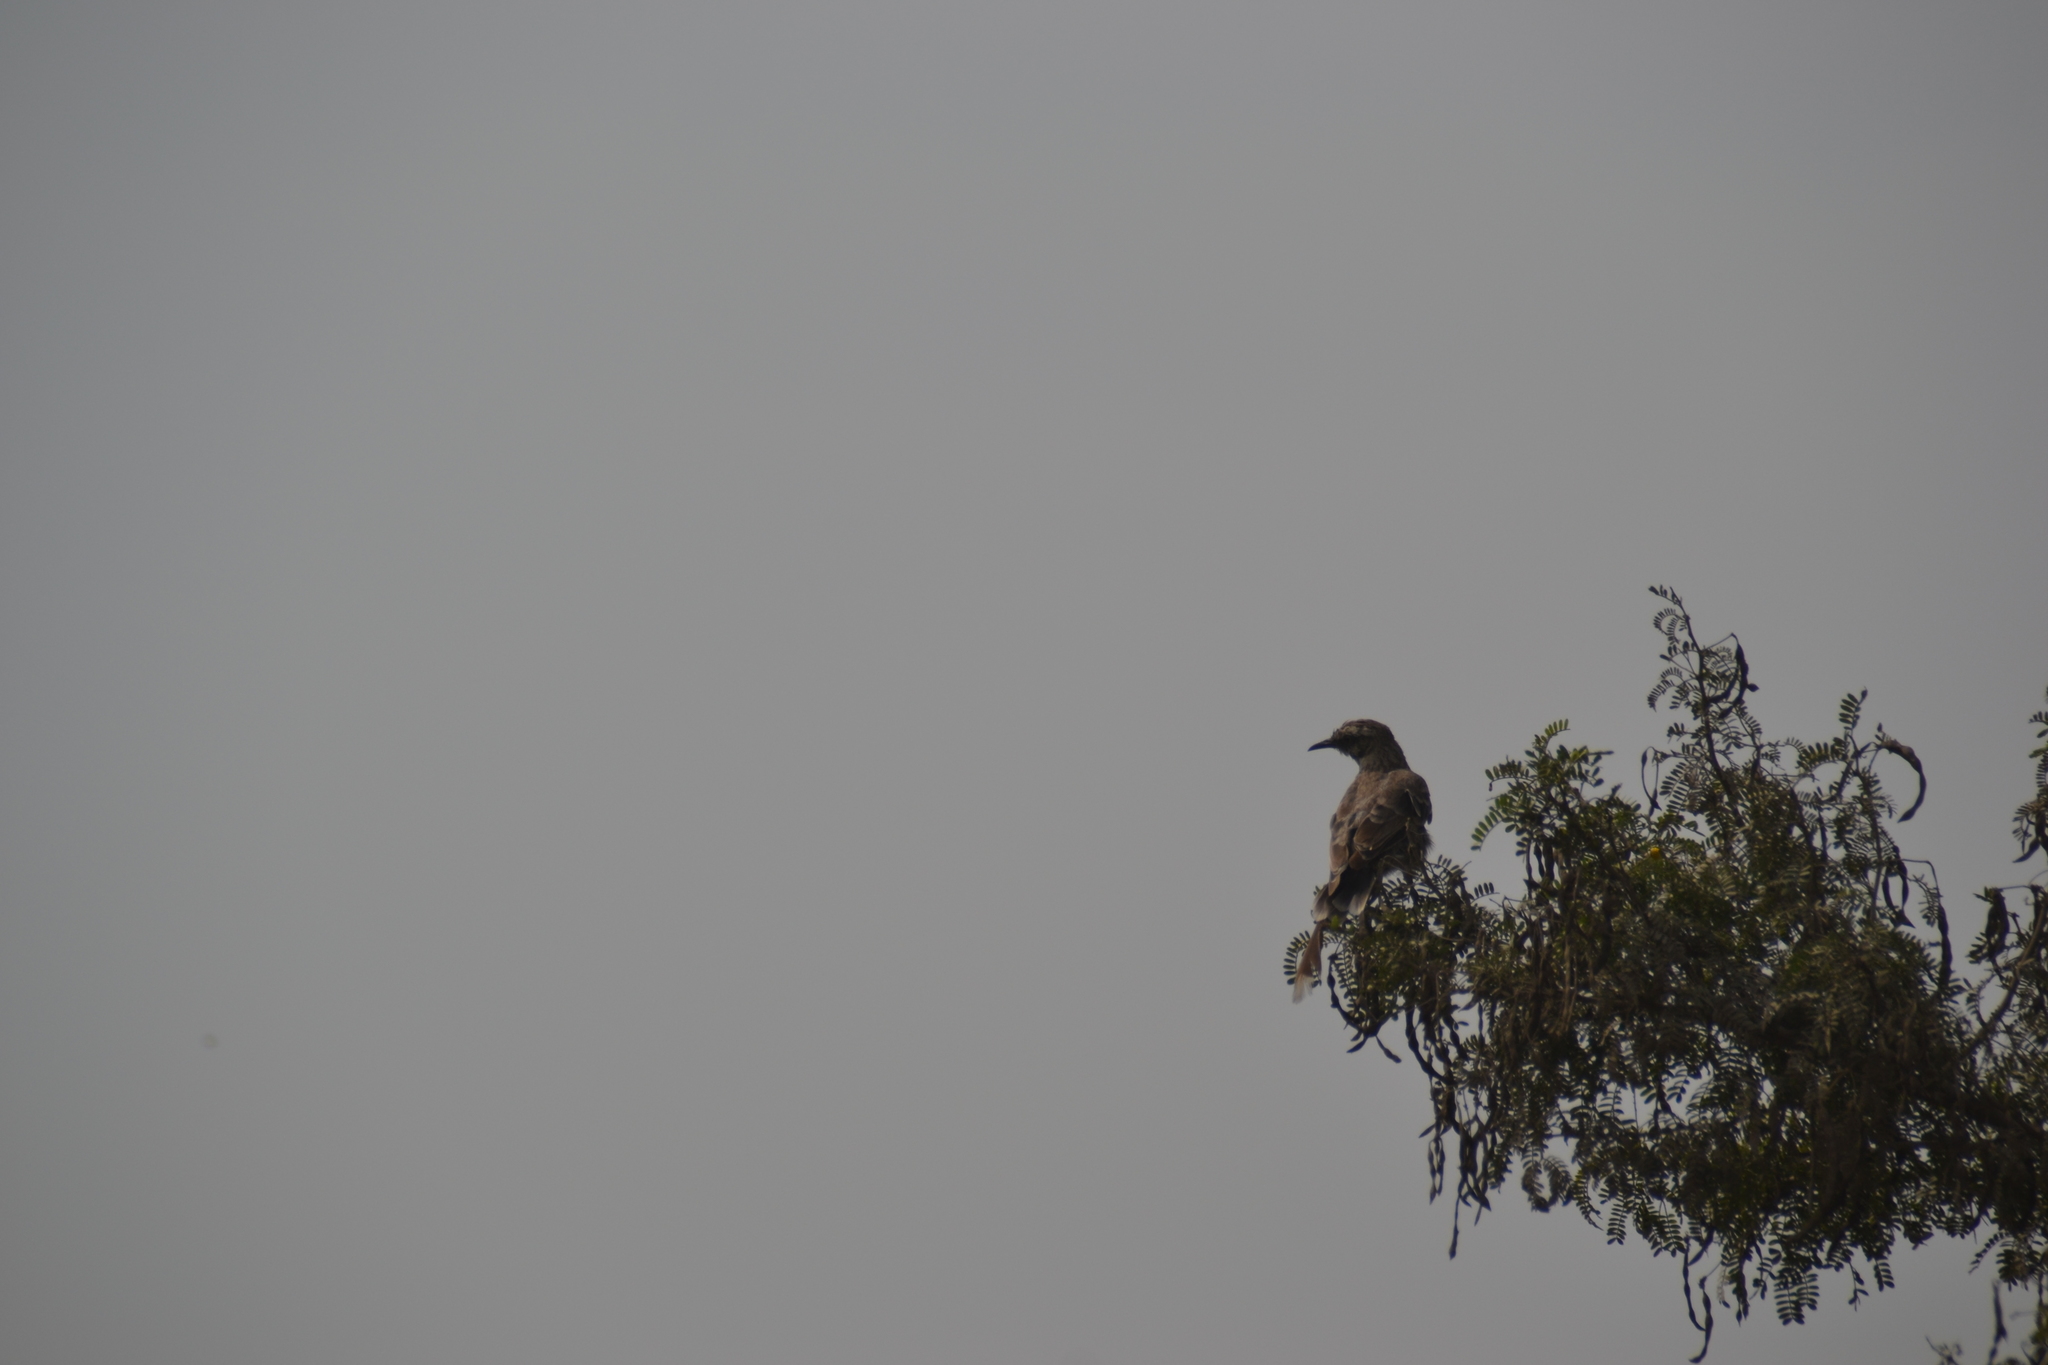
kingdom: Animalia
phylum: Chordata
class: Aves
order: Passeriformes
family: Mimidae
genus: Mimus
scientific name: Mimus longicaudatus
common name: Long-tailed mockingbird
